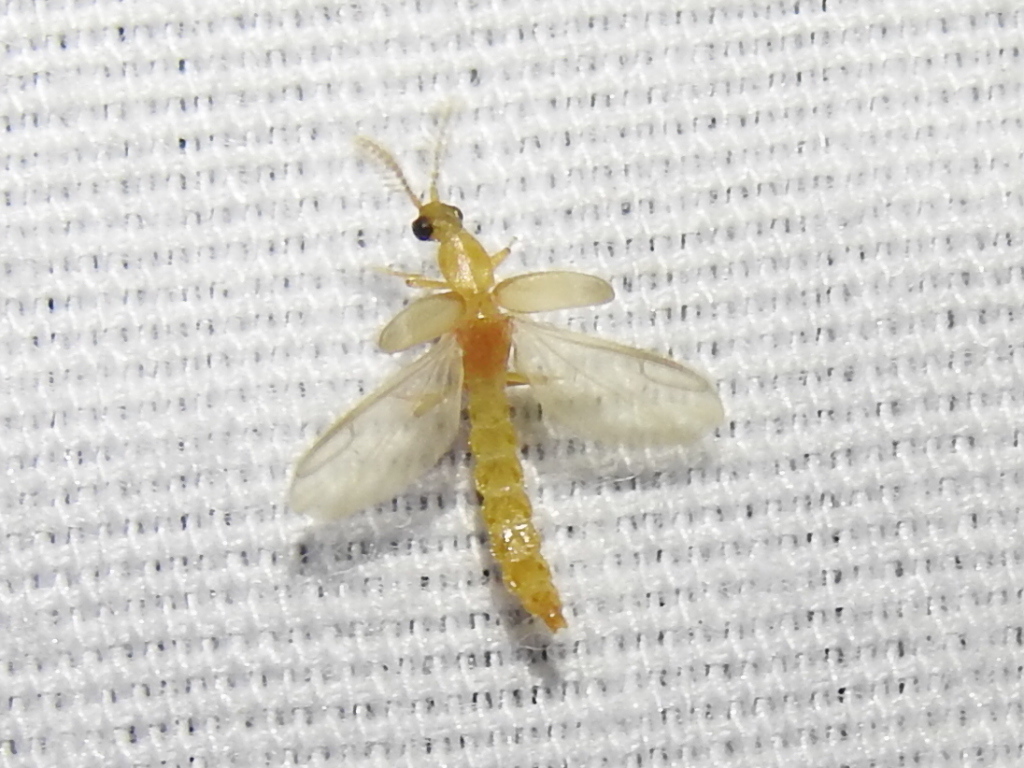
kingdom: Animalia
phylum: Arthropoda
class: Insecta
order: Coleoptera
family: Phengodidae
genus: Cenophengus
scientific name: Cenophengus pallidus
